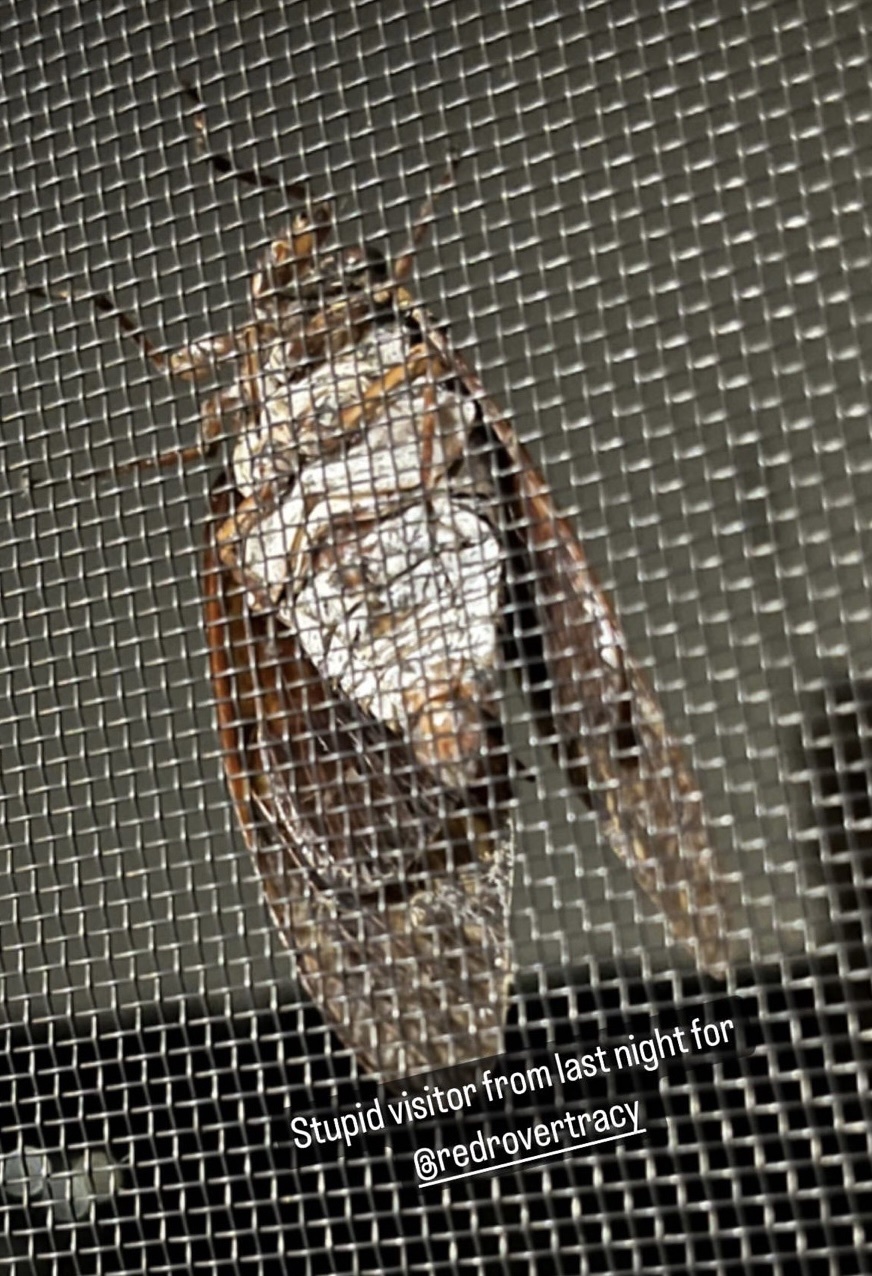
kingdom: Animalia
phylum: Arthropoda
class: Insecta
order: Hemiptera
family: Cicadidae
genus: Graptopsaltria
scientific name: Graptopsaltria nigrofuscata
